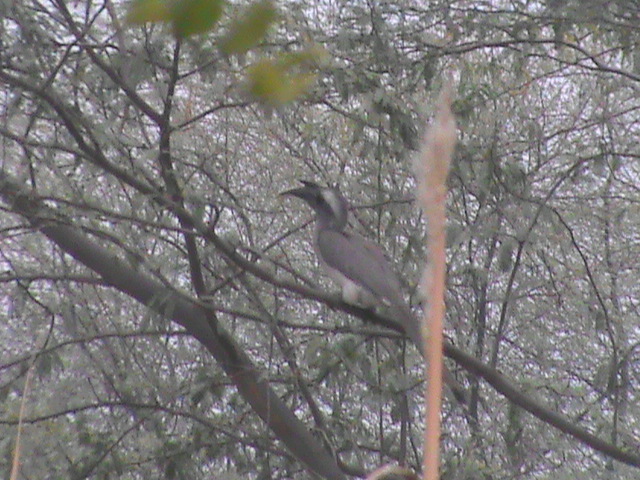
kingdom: Animalia
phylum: Chordata
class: Aves
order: Bucerotiformes
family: Bucerotidae
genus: Ocyceros
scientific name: Ocyceros birostris
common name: Indian grey hornbill
